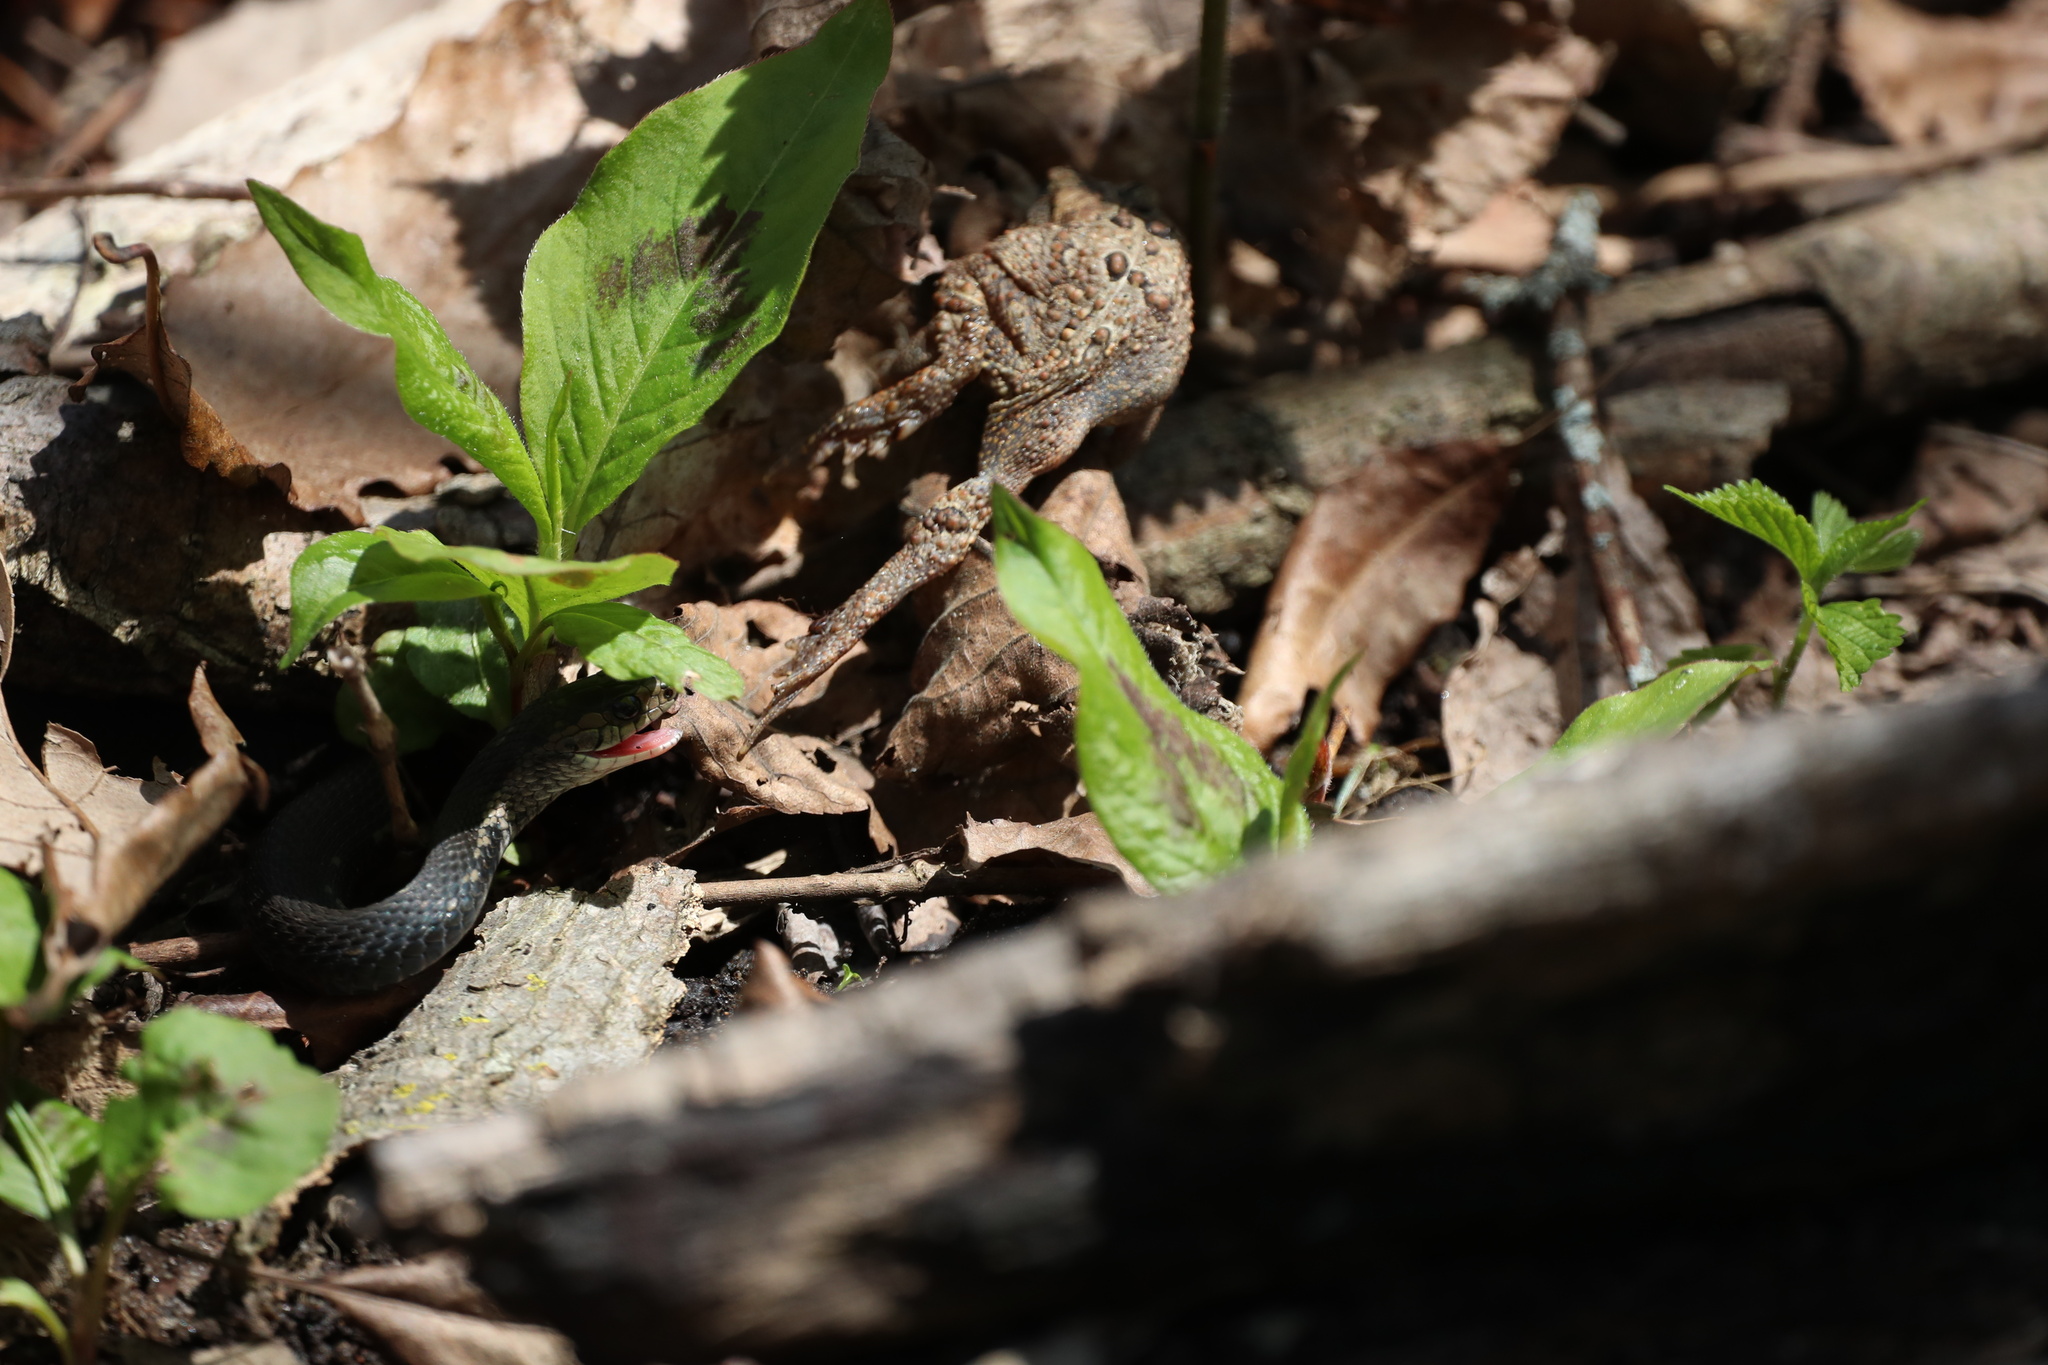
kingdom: Animalia
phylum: Chordata
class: Squamata
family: Colubridae
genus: Thamnophis
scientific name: Thamnophis sirtalis
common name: Common garter snake
